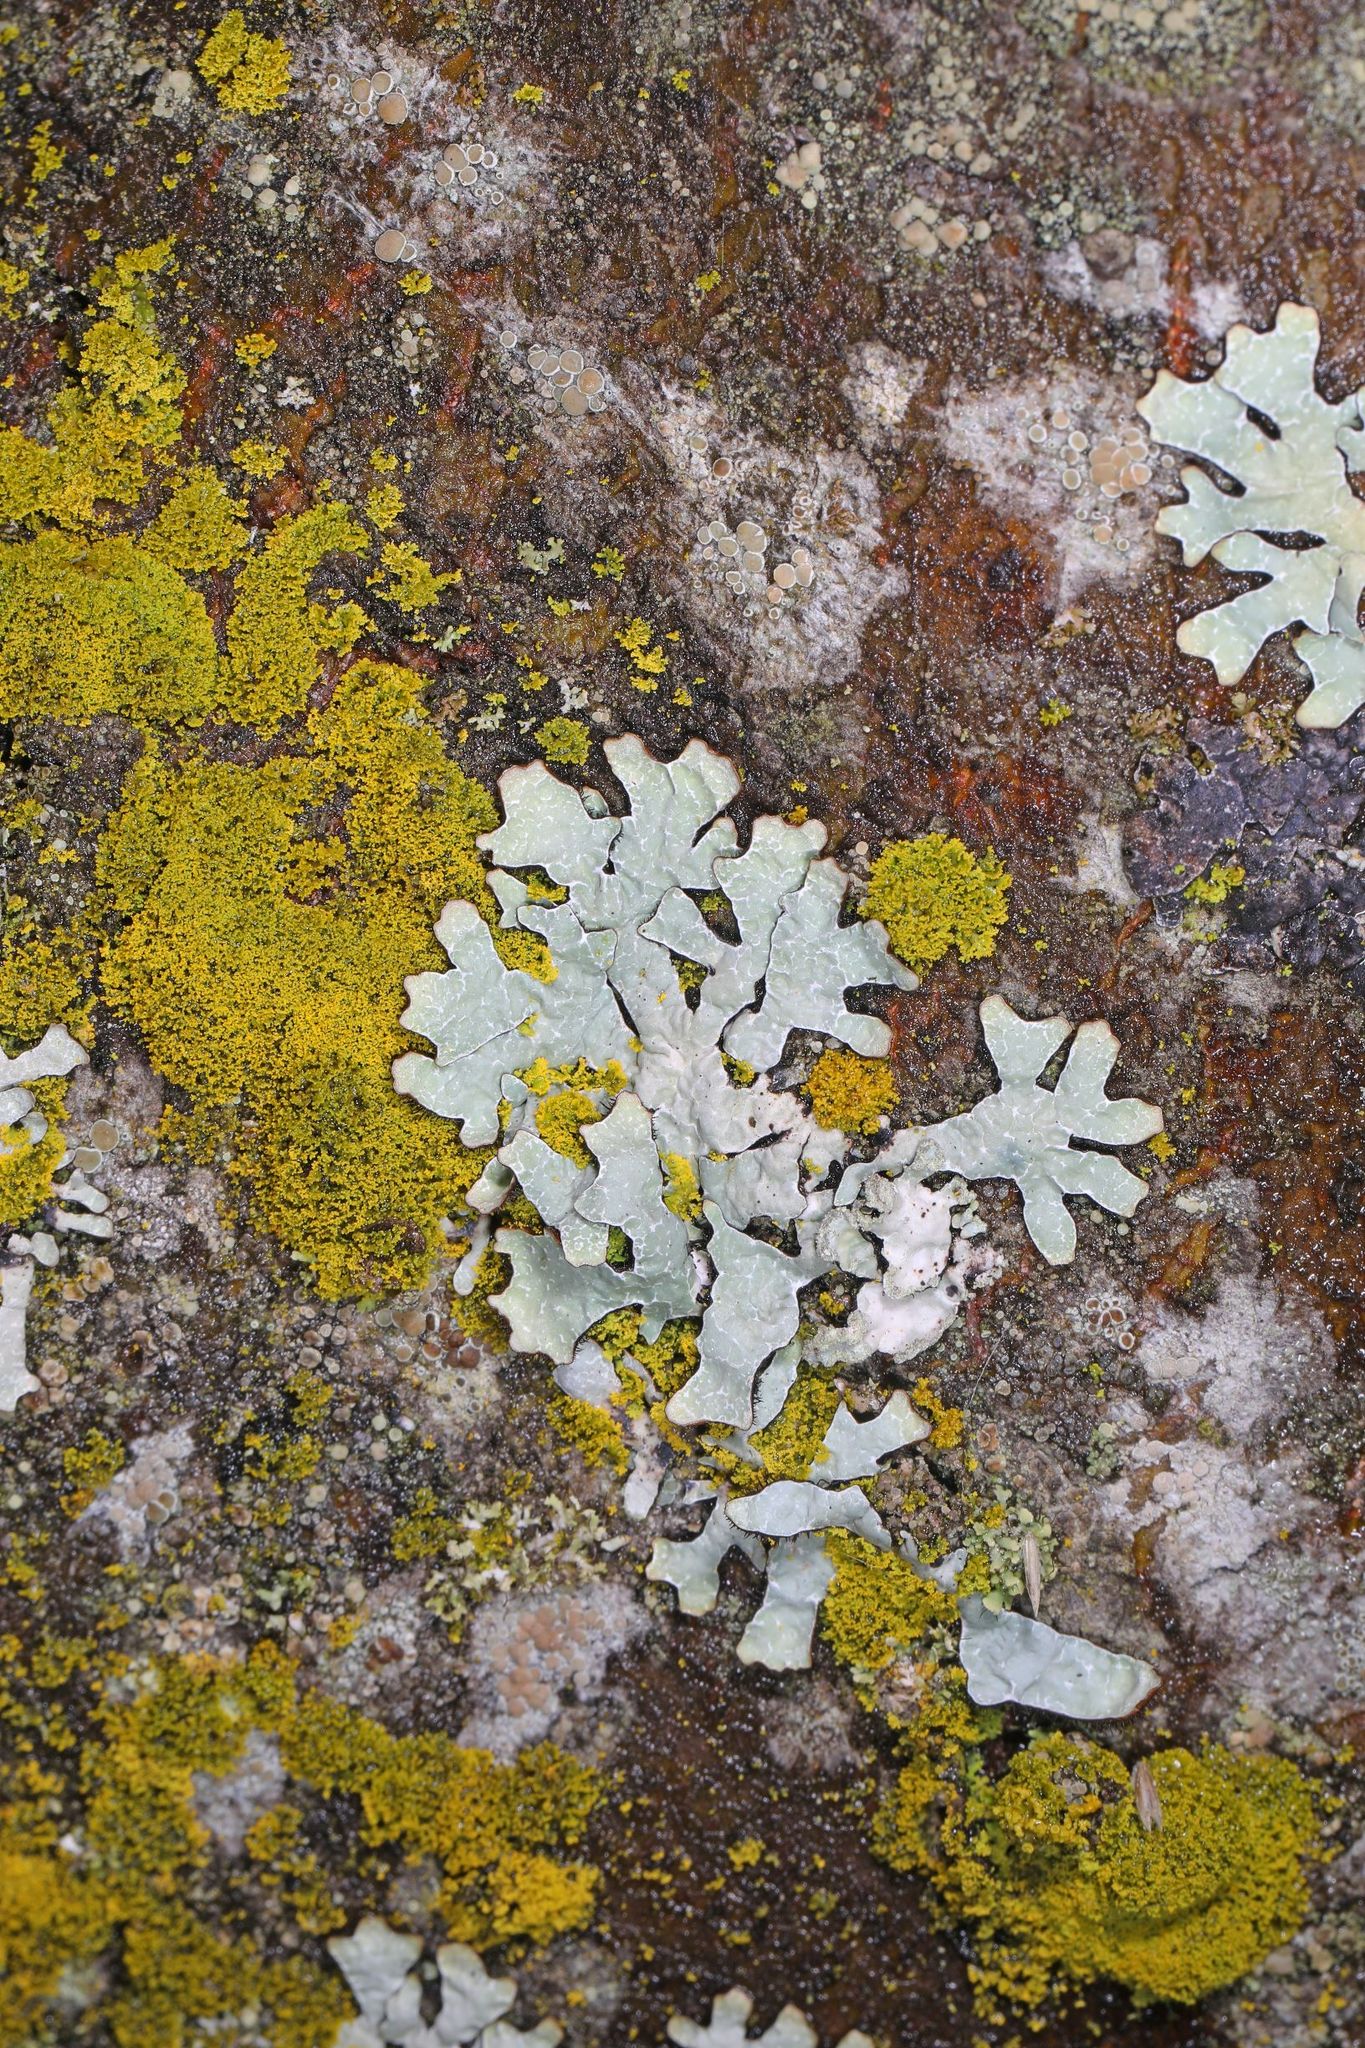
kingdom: Fungi
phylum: Ascomycota
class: Lecanoromycetes
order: Lecanorales
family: Parmeliaceae
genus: Parmelia
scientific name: Parmelia sulcata
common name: Netted shield lichen
